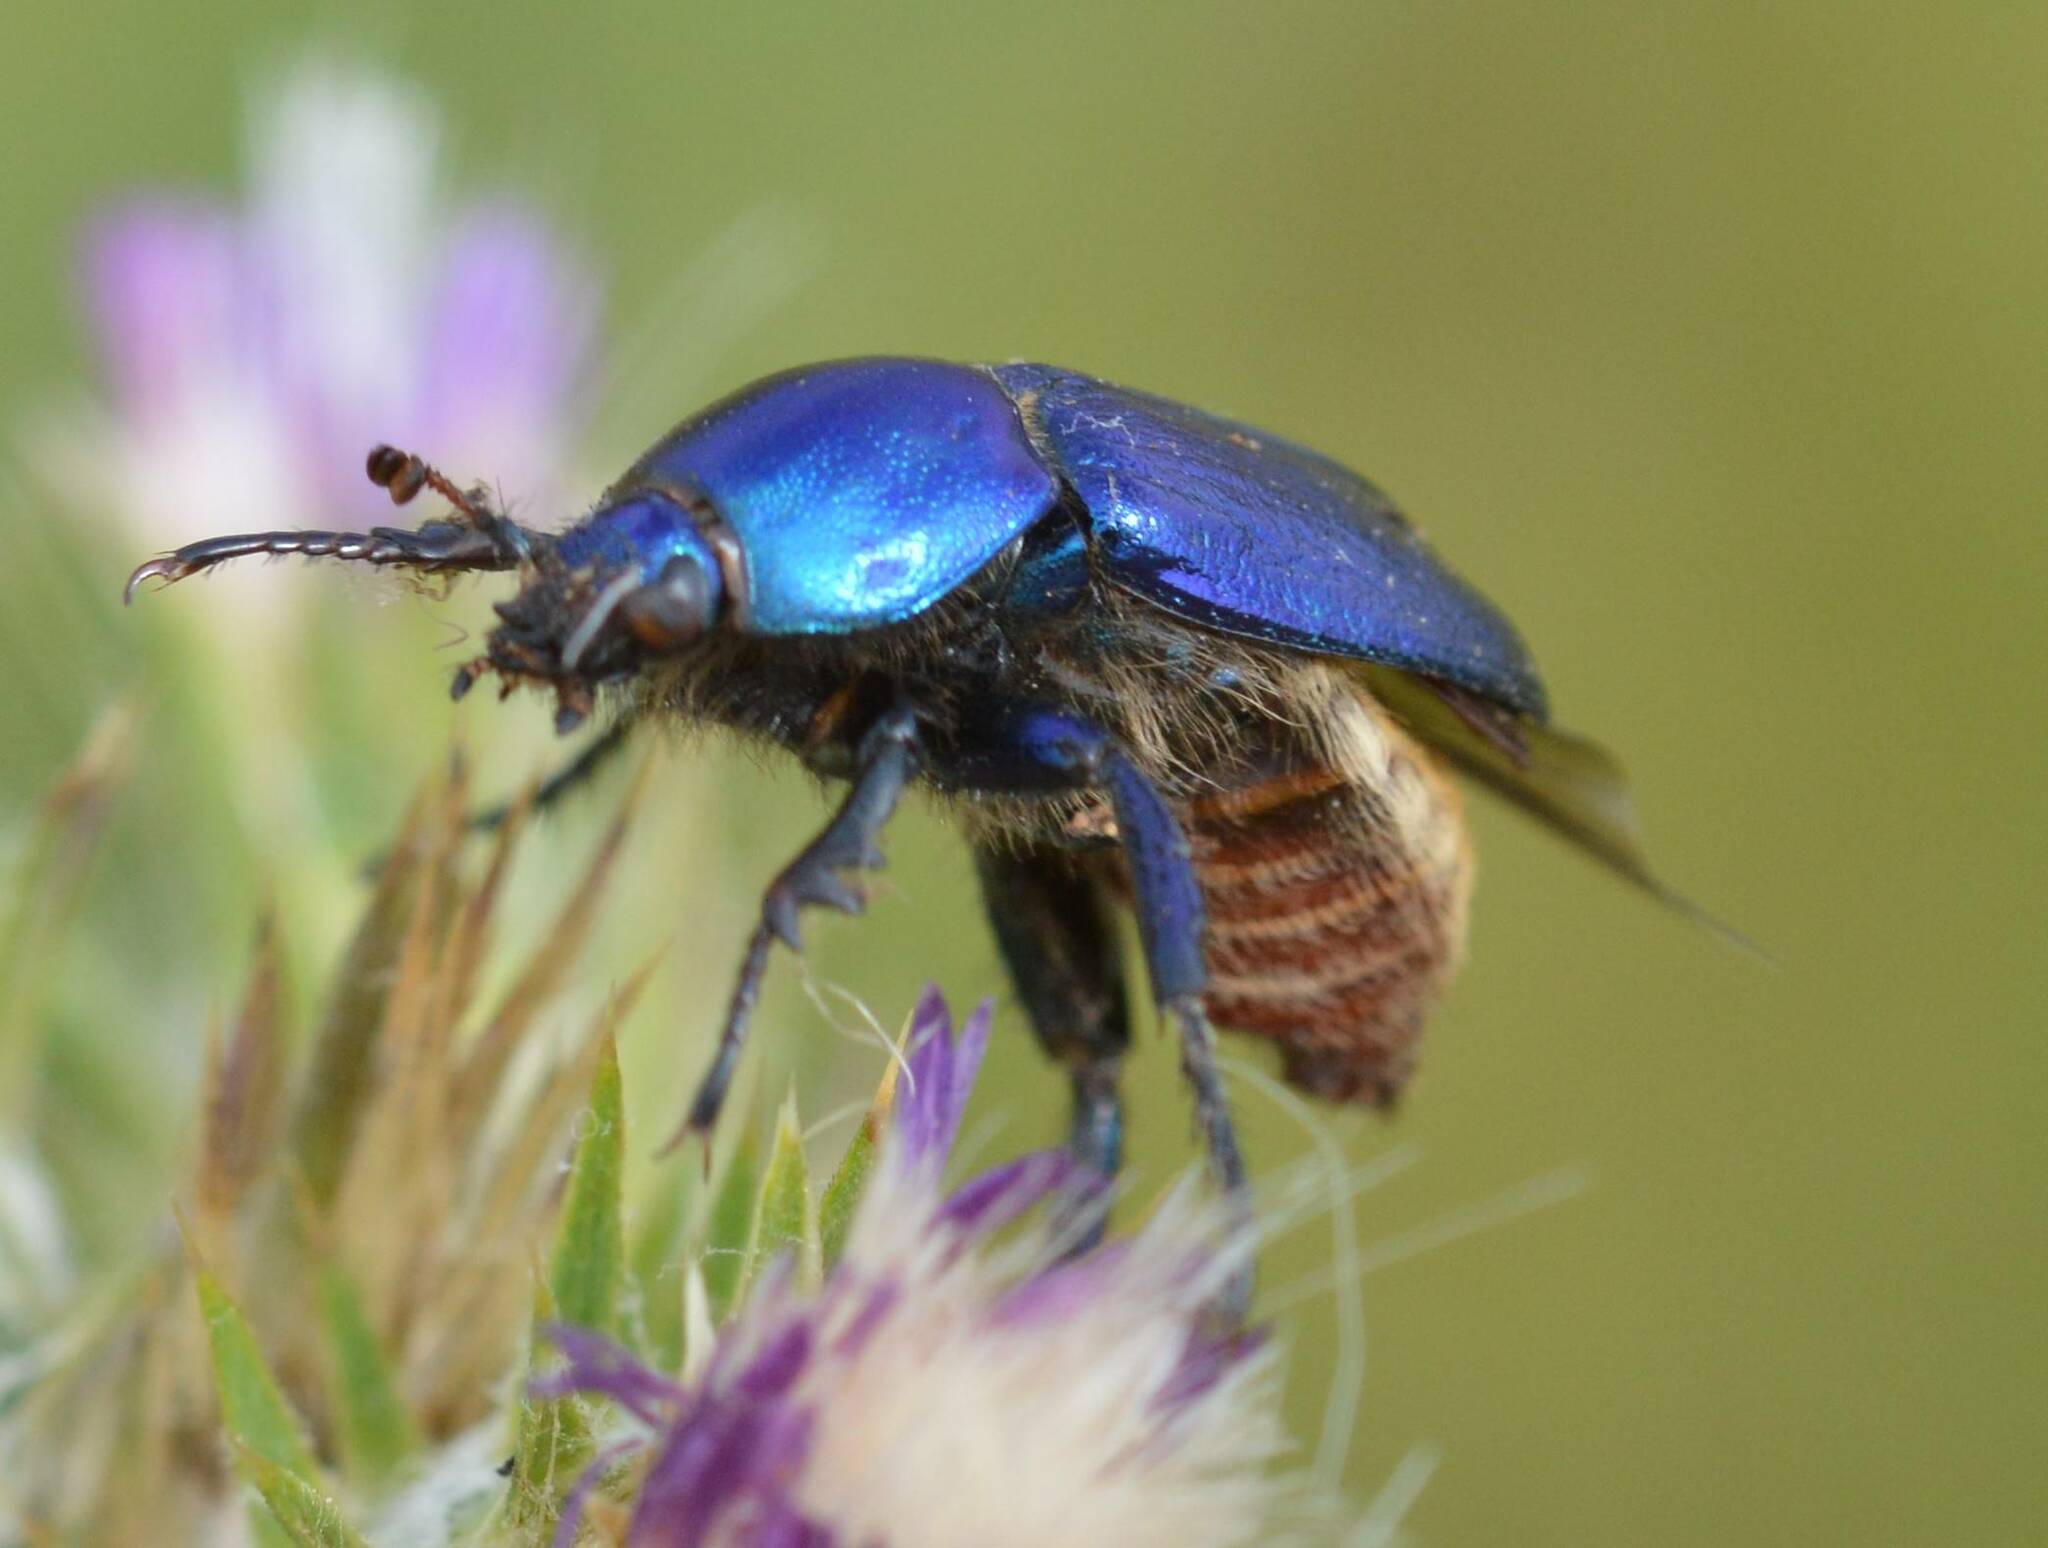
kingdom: Animalia
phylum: Arthropoda
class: Insecta
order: Coleoptera
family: Glaphyridae
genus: Glaphyrus
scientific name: Glaphyrus maurus
